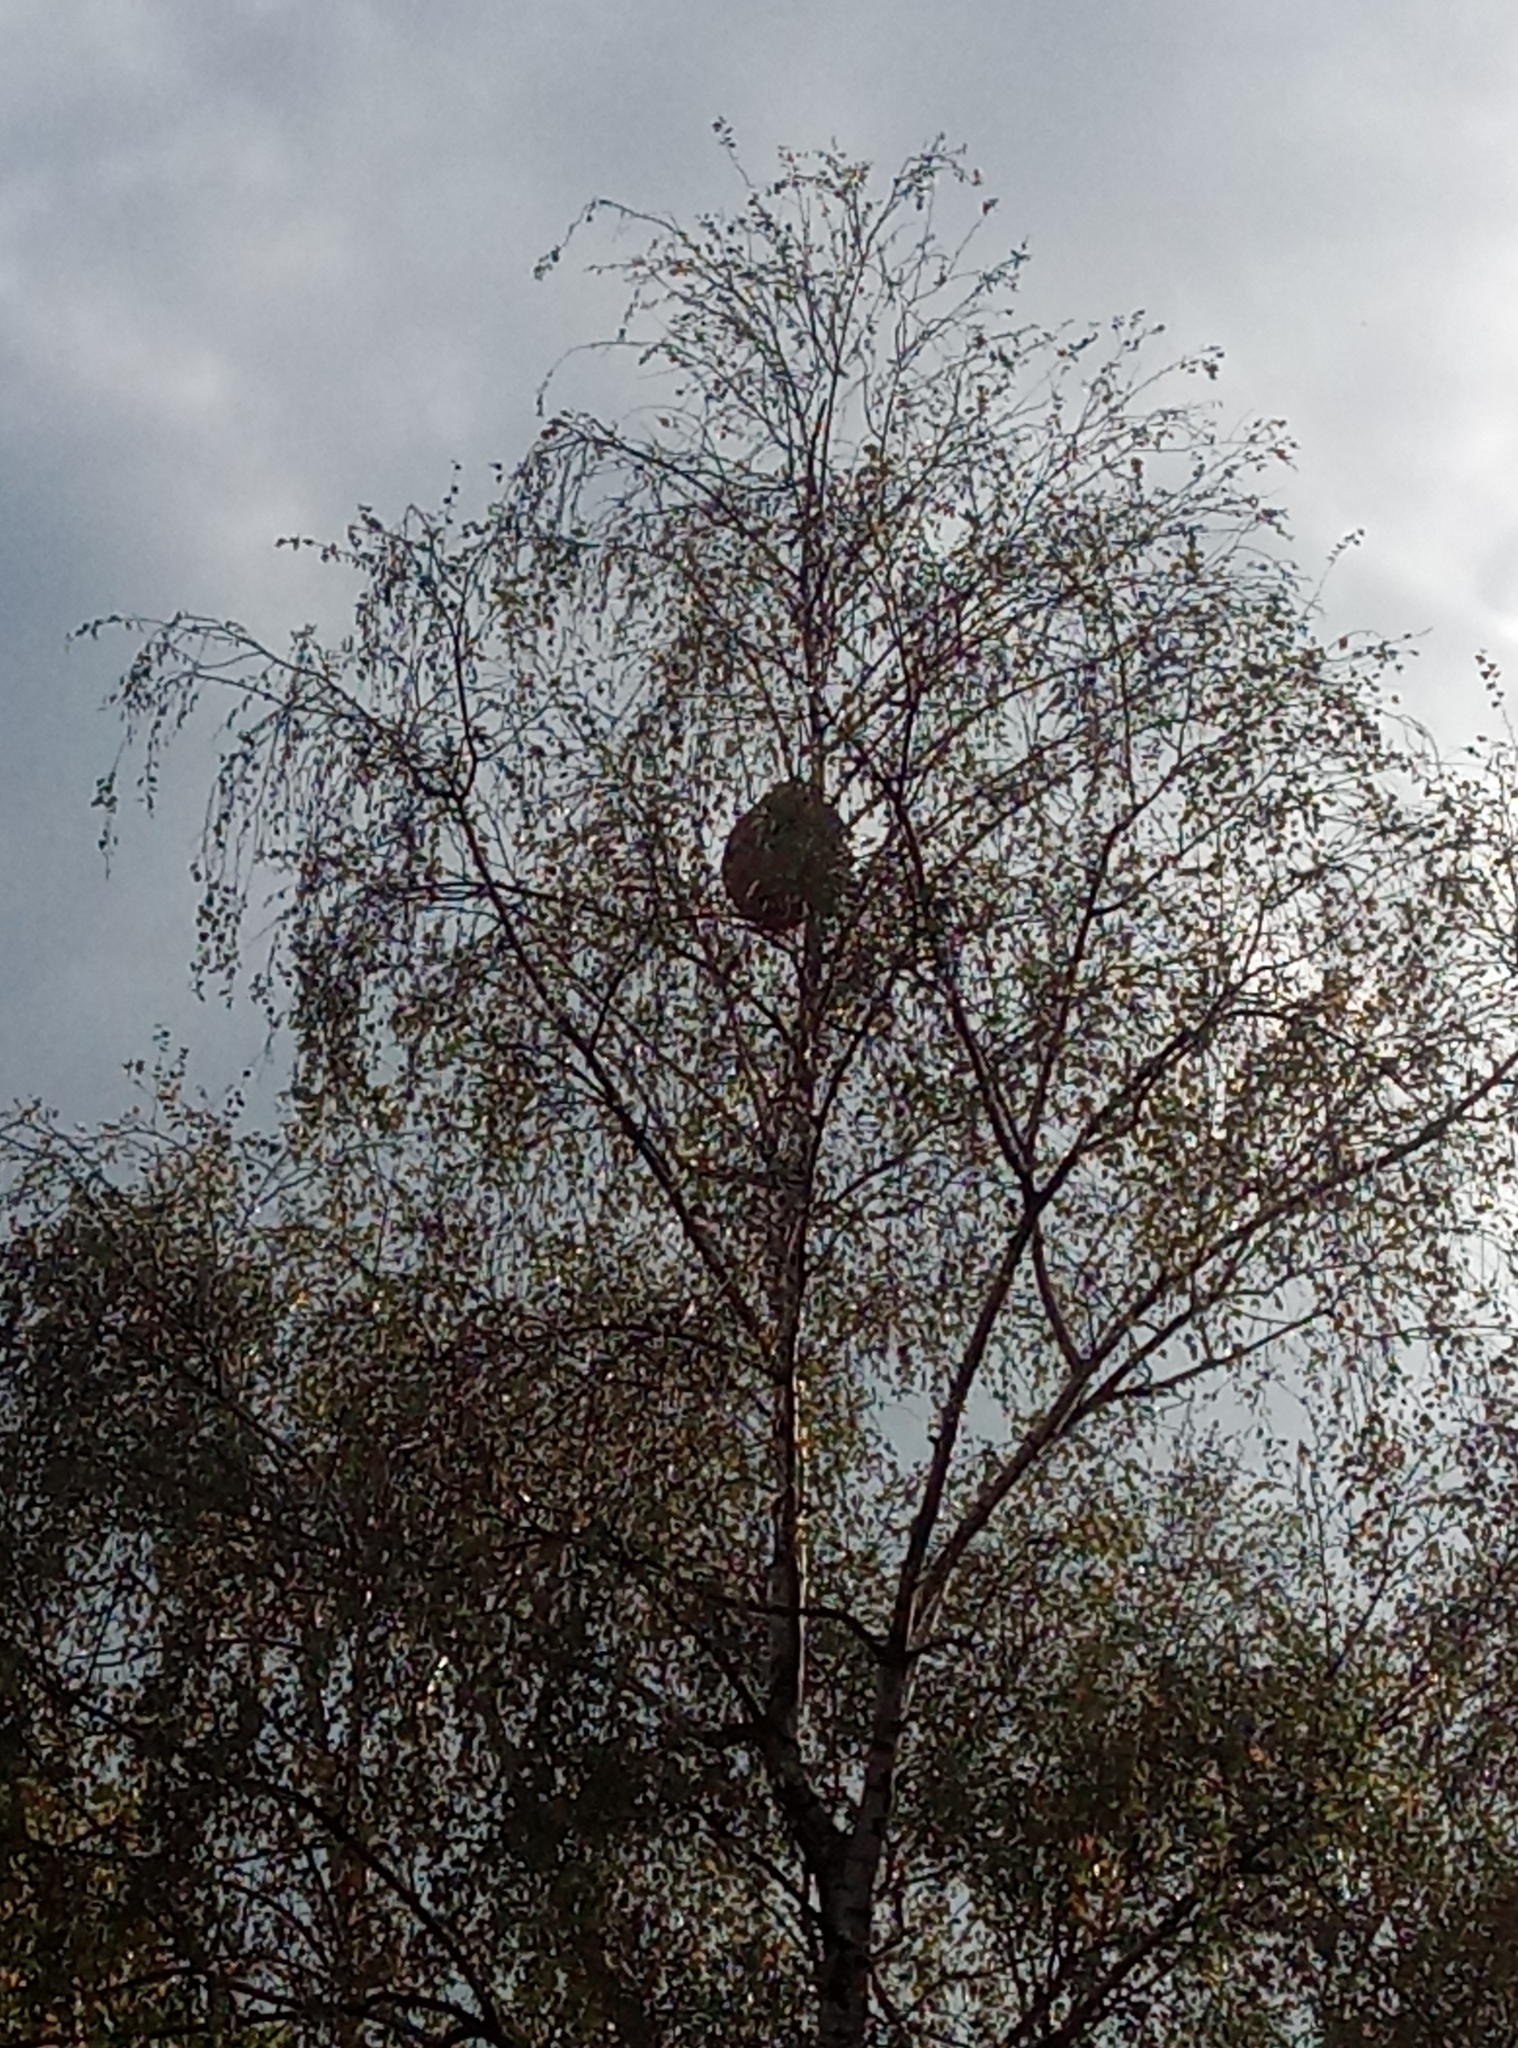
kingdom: Animalia
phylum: Arthropoda
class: Insecta
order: Hymenoptera
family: Vespidae
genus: Vespa
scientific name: Vespa velutina
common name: Asian hornet
